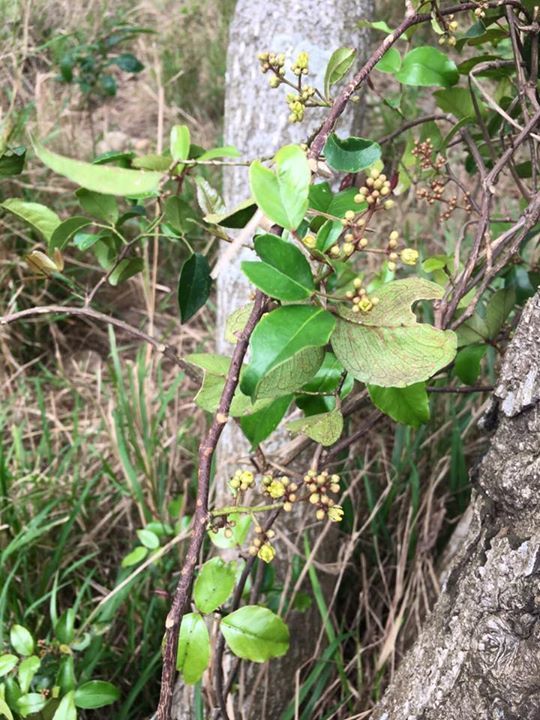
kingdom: Plantae
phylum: Tracheophyta
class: Magnoliopsida
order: Sapindales
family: Rutaceae
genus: Zanthoxylum
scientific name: Zanthoxylum nitidum
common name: Shiny-leaf prickly-ash
